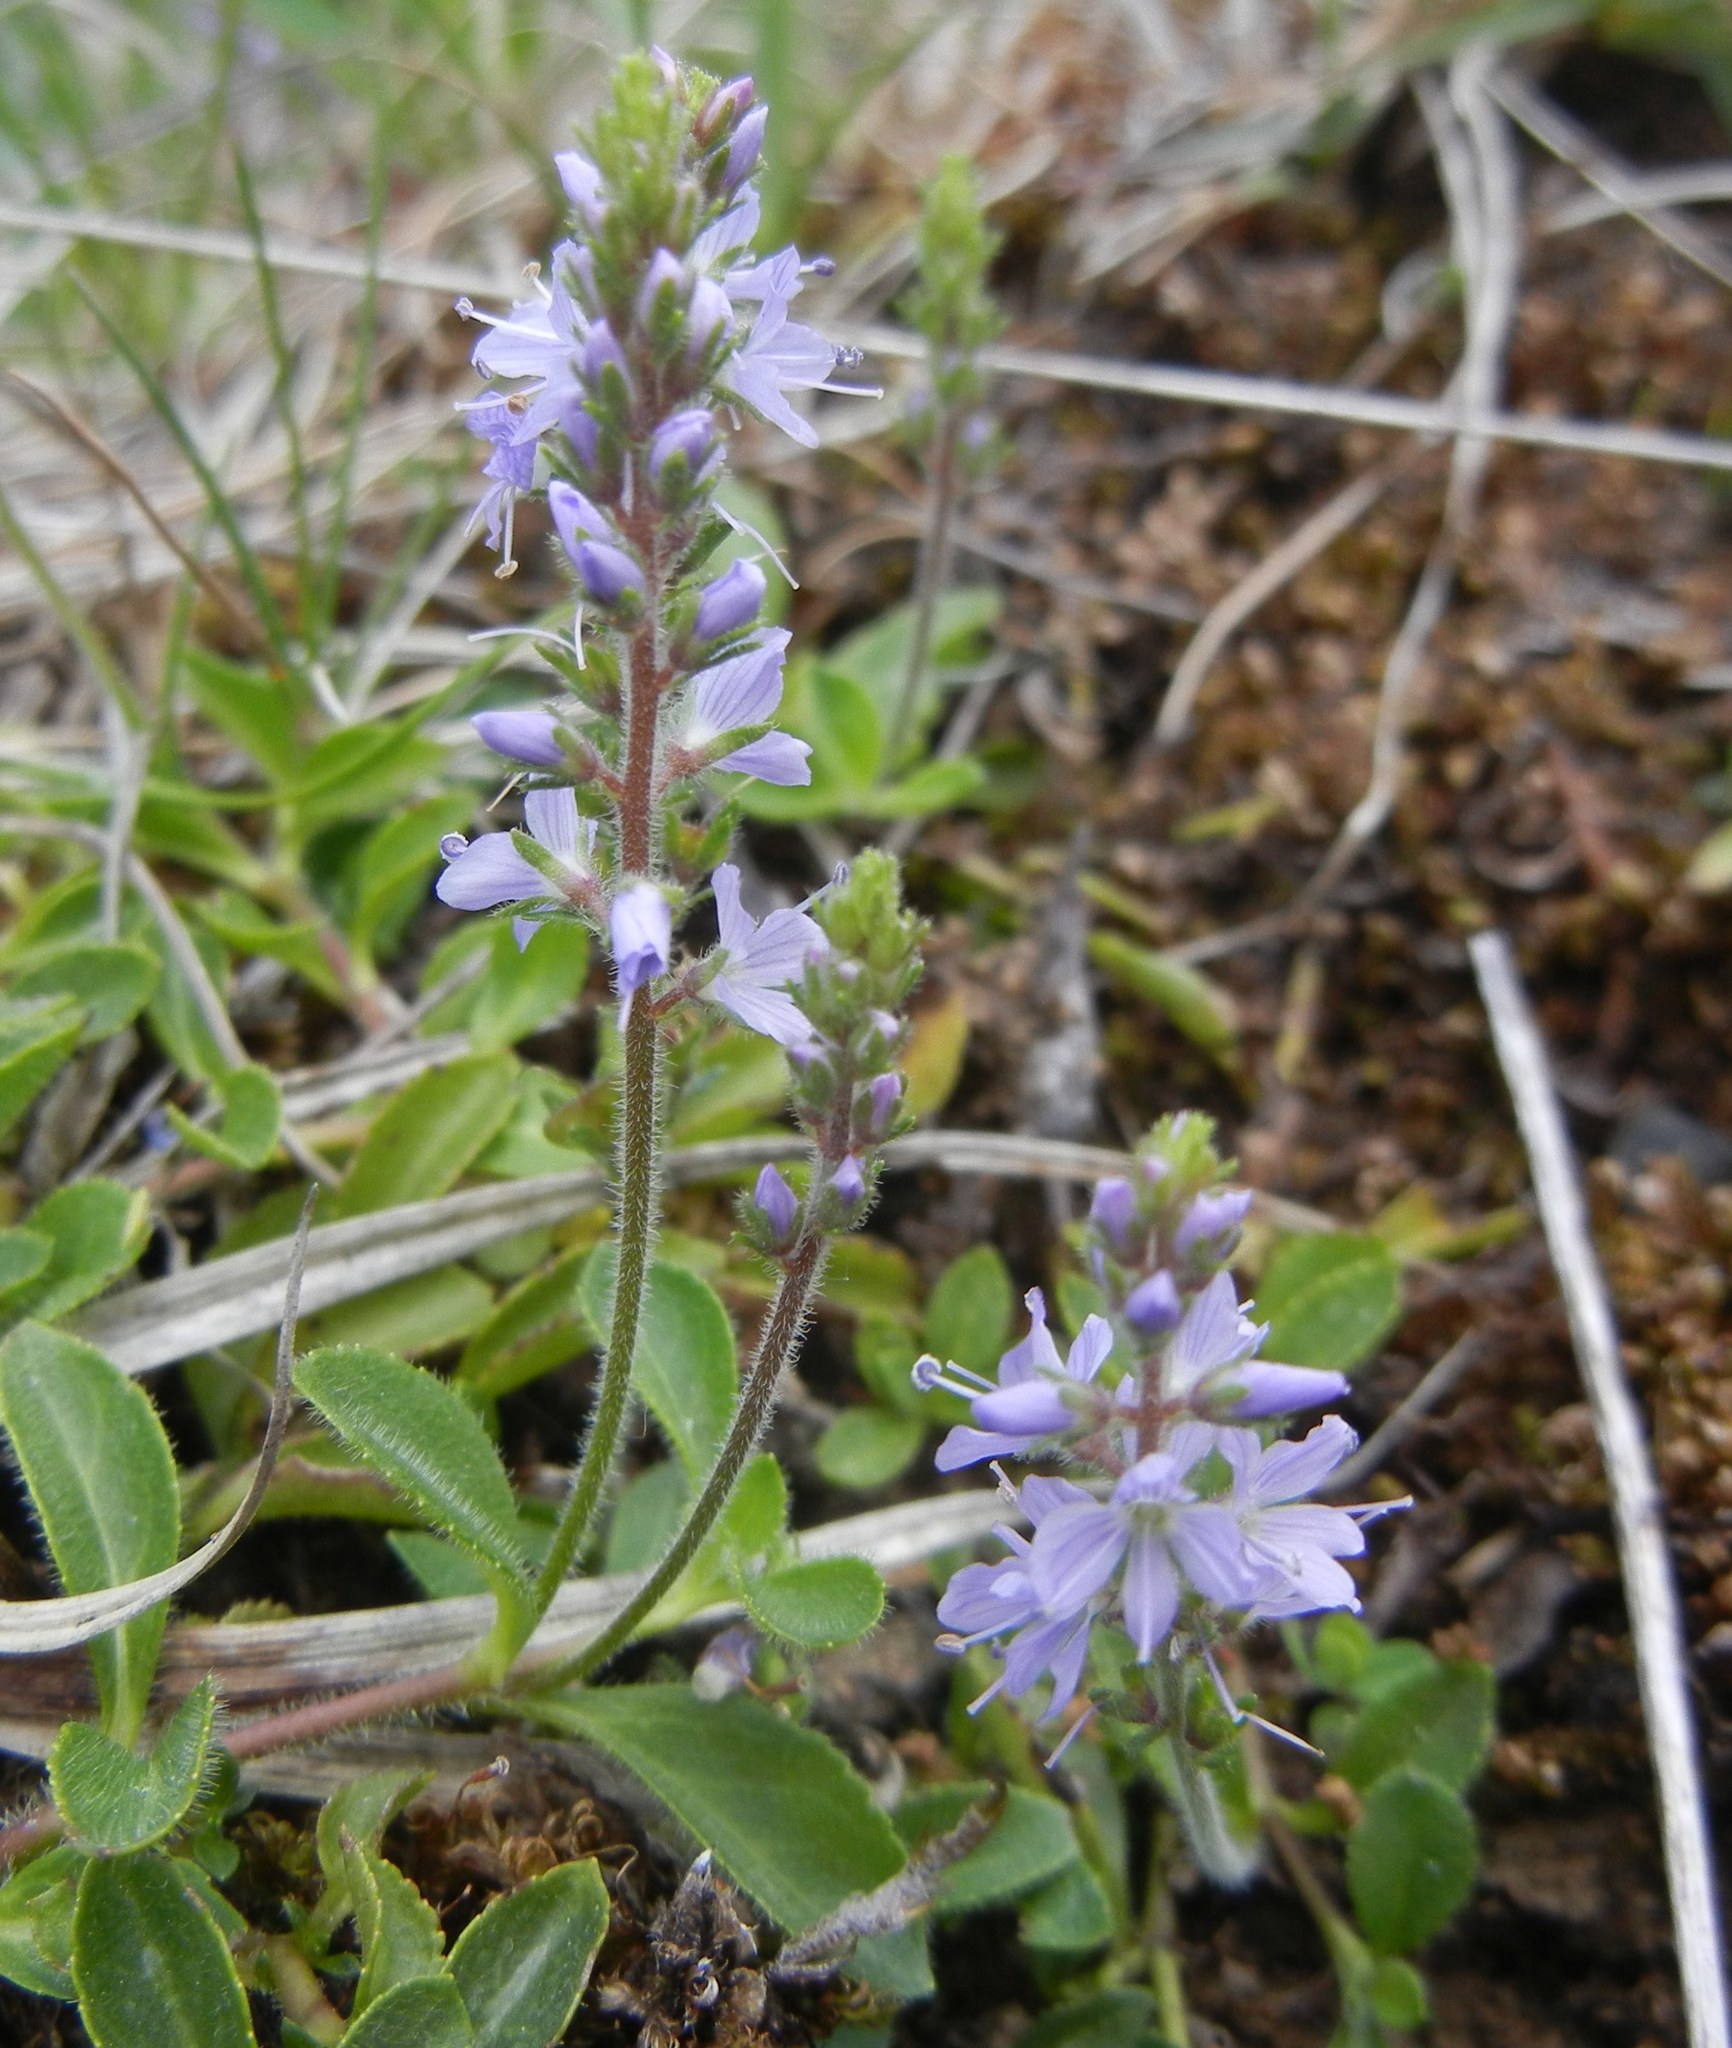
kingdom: Plantae
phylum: Tracheophyta
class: Magnoliopsida
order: Lamiales
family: Plantaginaceae
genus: Veronica
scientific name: Veronica officinalis
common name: Common speedwell
